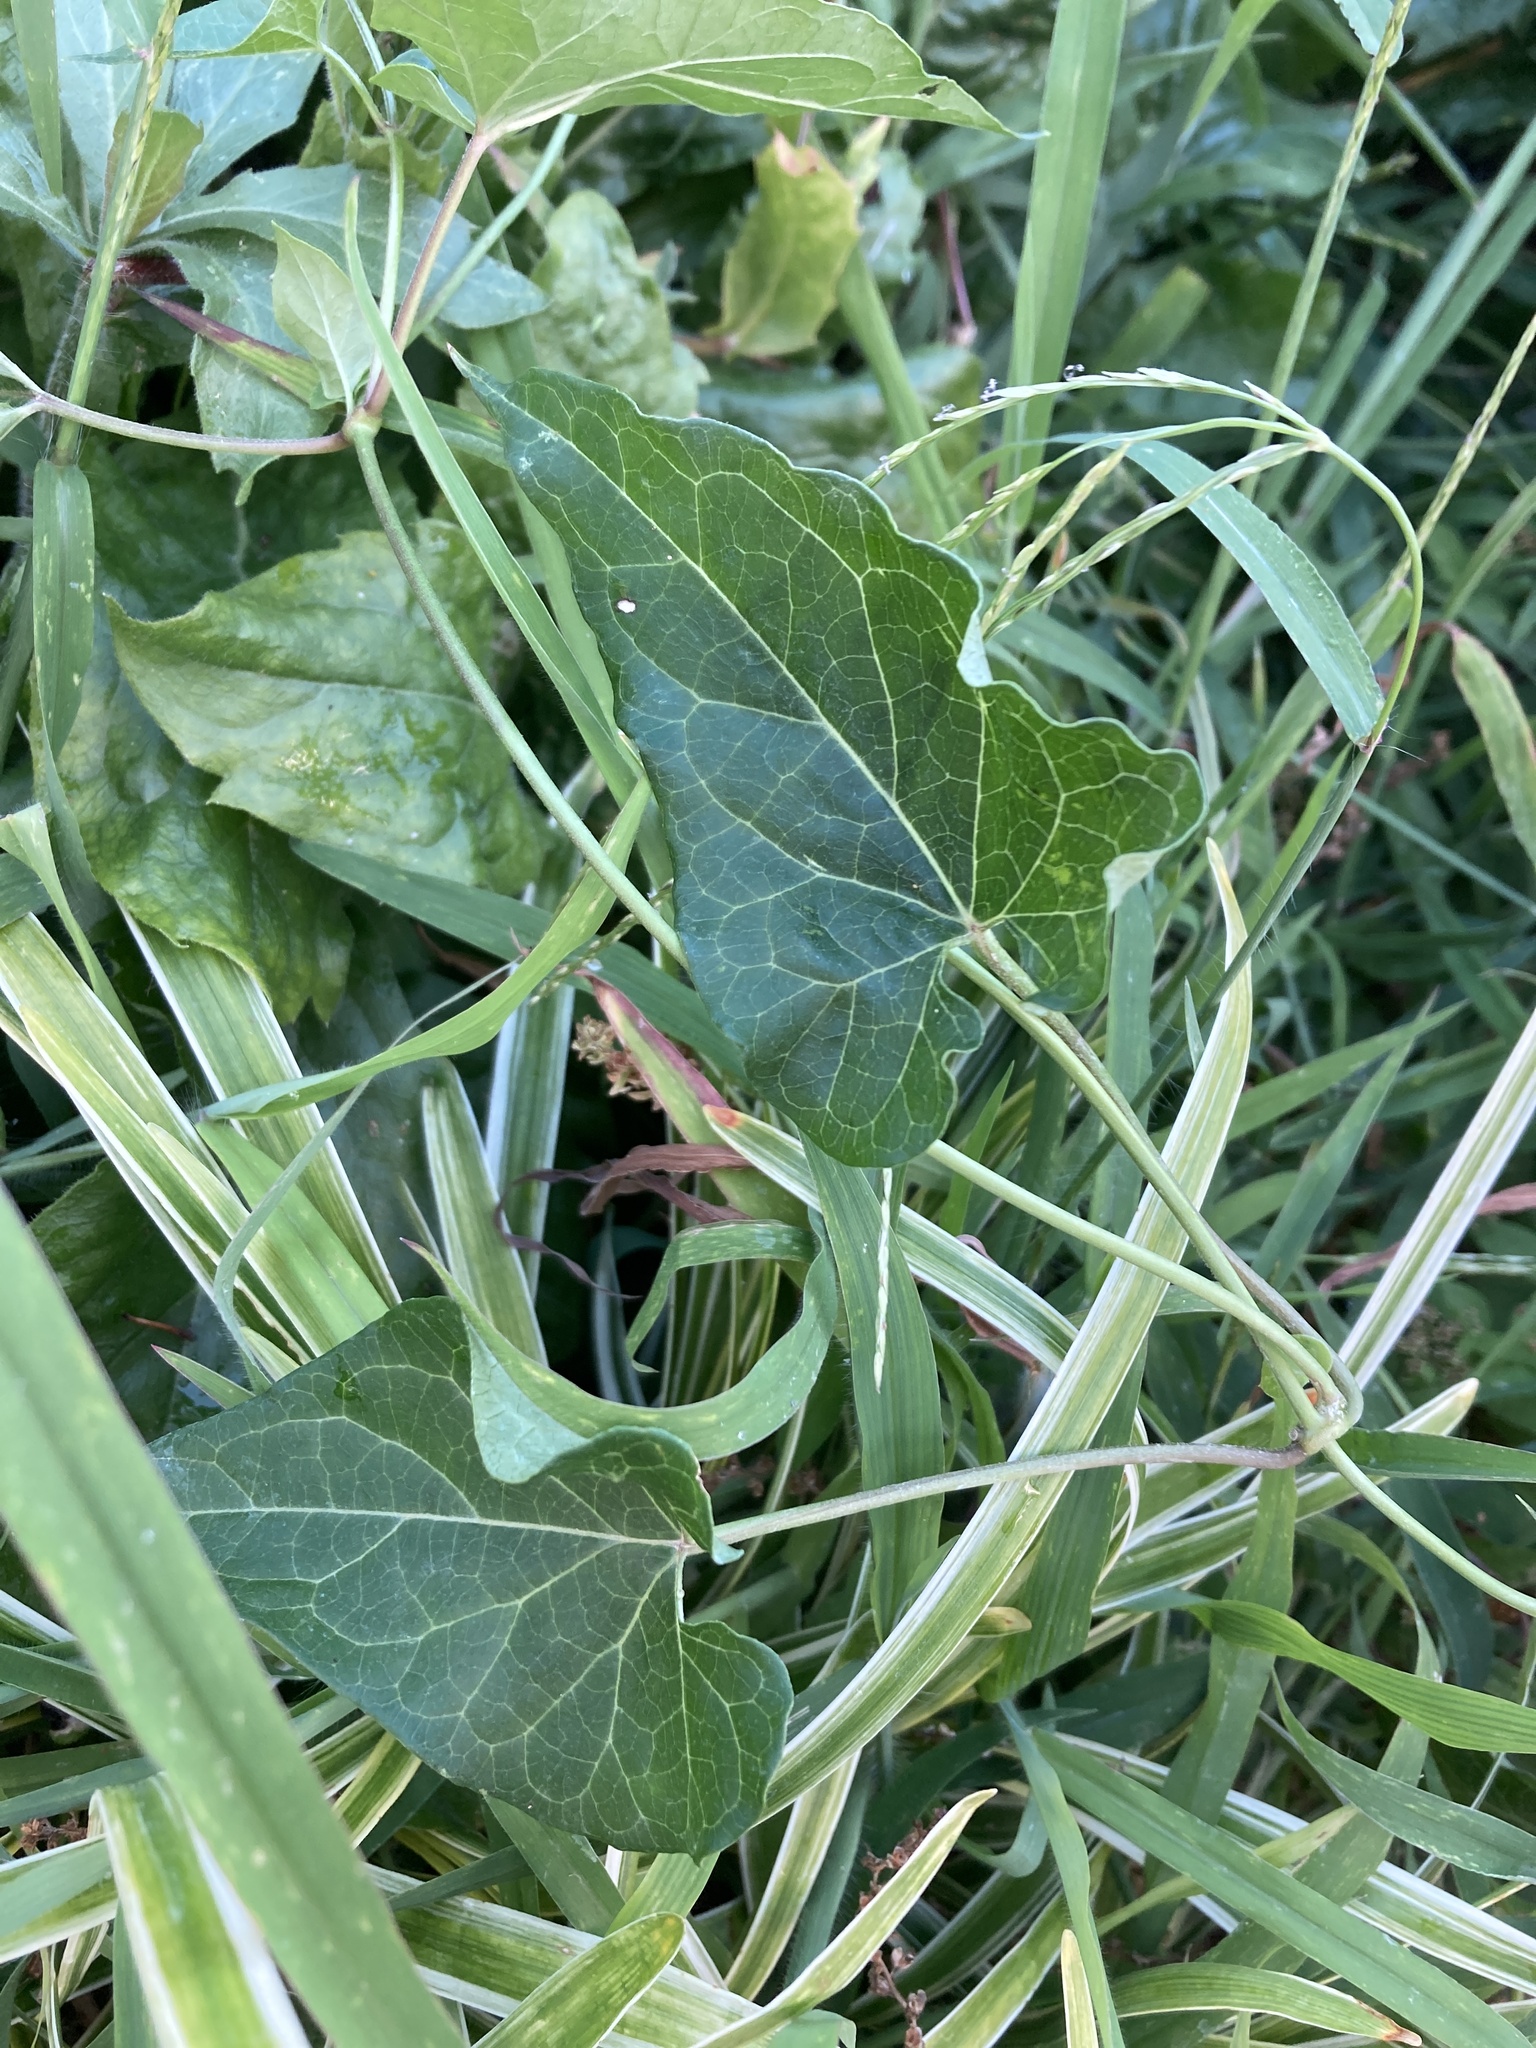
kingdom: Plantae
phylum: Tracheophyta
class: Magnoliopsida
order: Gentianales
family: Apocynaceae
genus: Cynanchum
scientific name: Cynanchum laeve
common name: Sandvine
